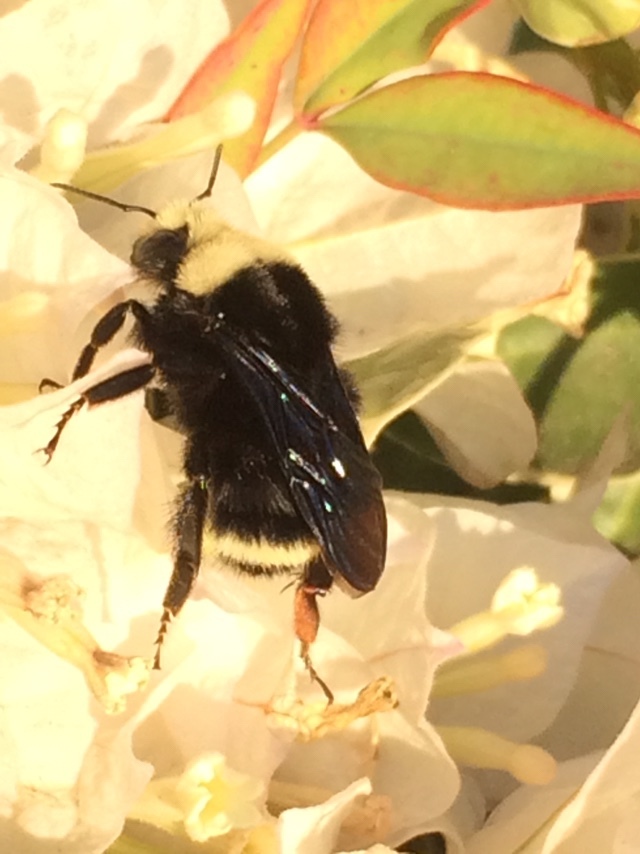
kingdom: Animalia
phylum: Arthropoda
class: Insecta
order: Hymenoptera
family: Apidae
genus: Pyrobombus
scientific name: Pyrobombus
